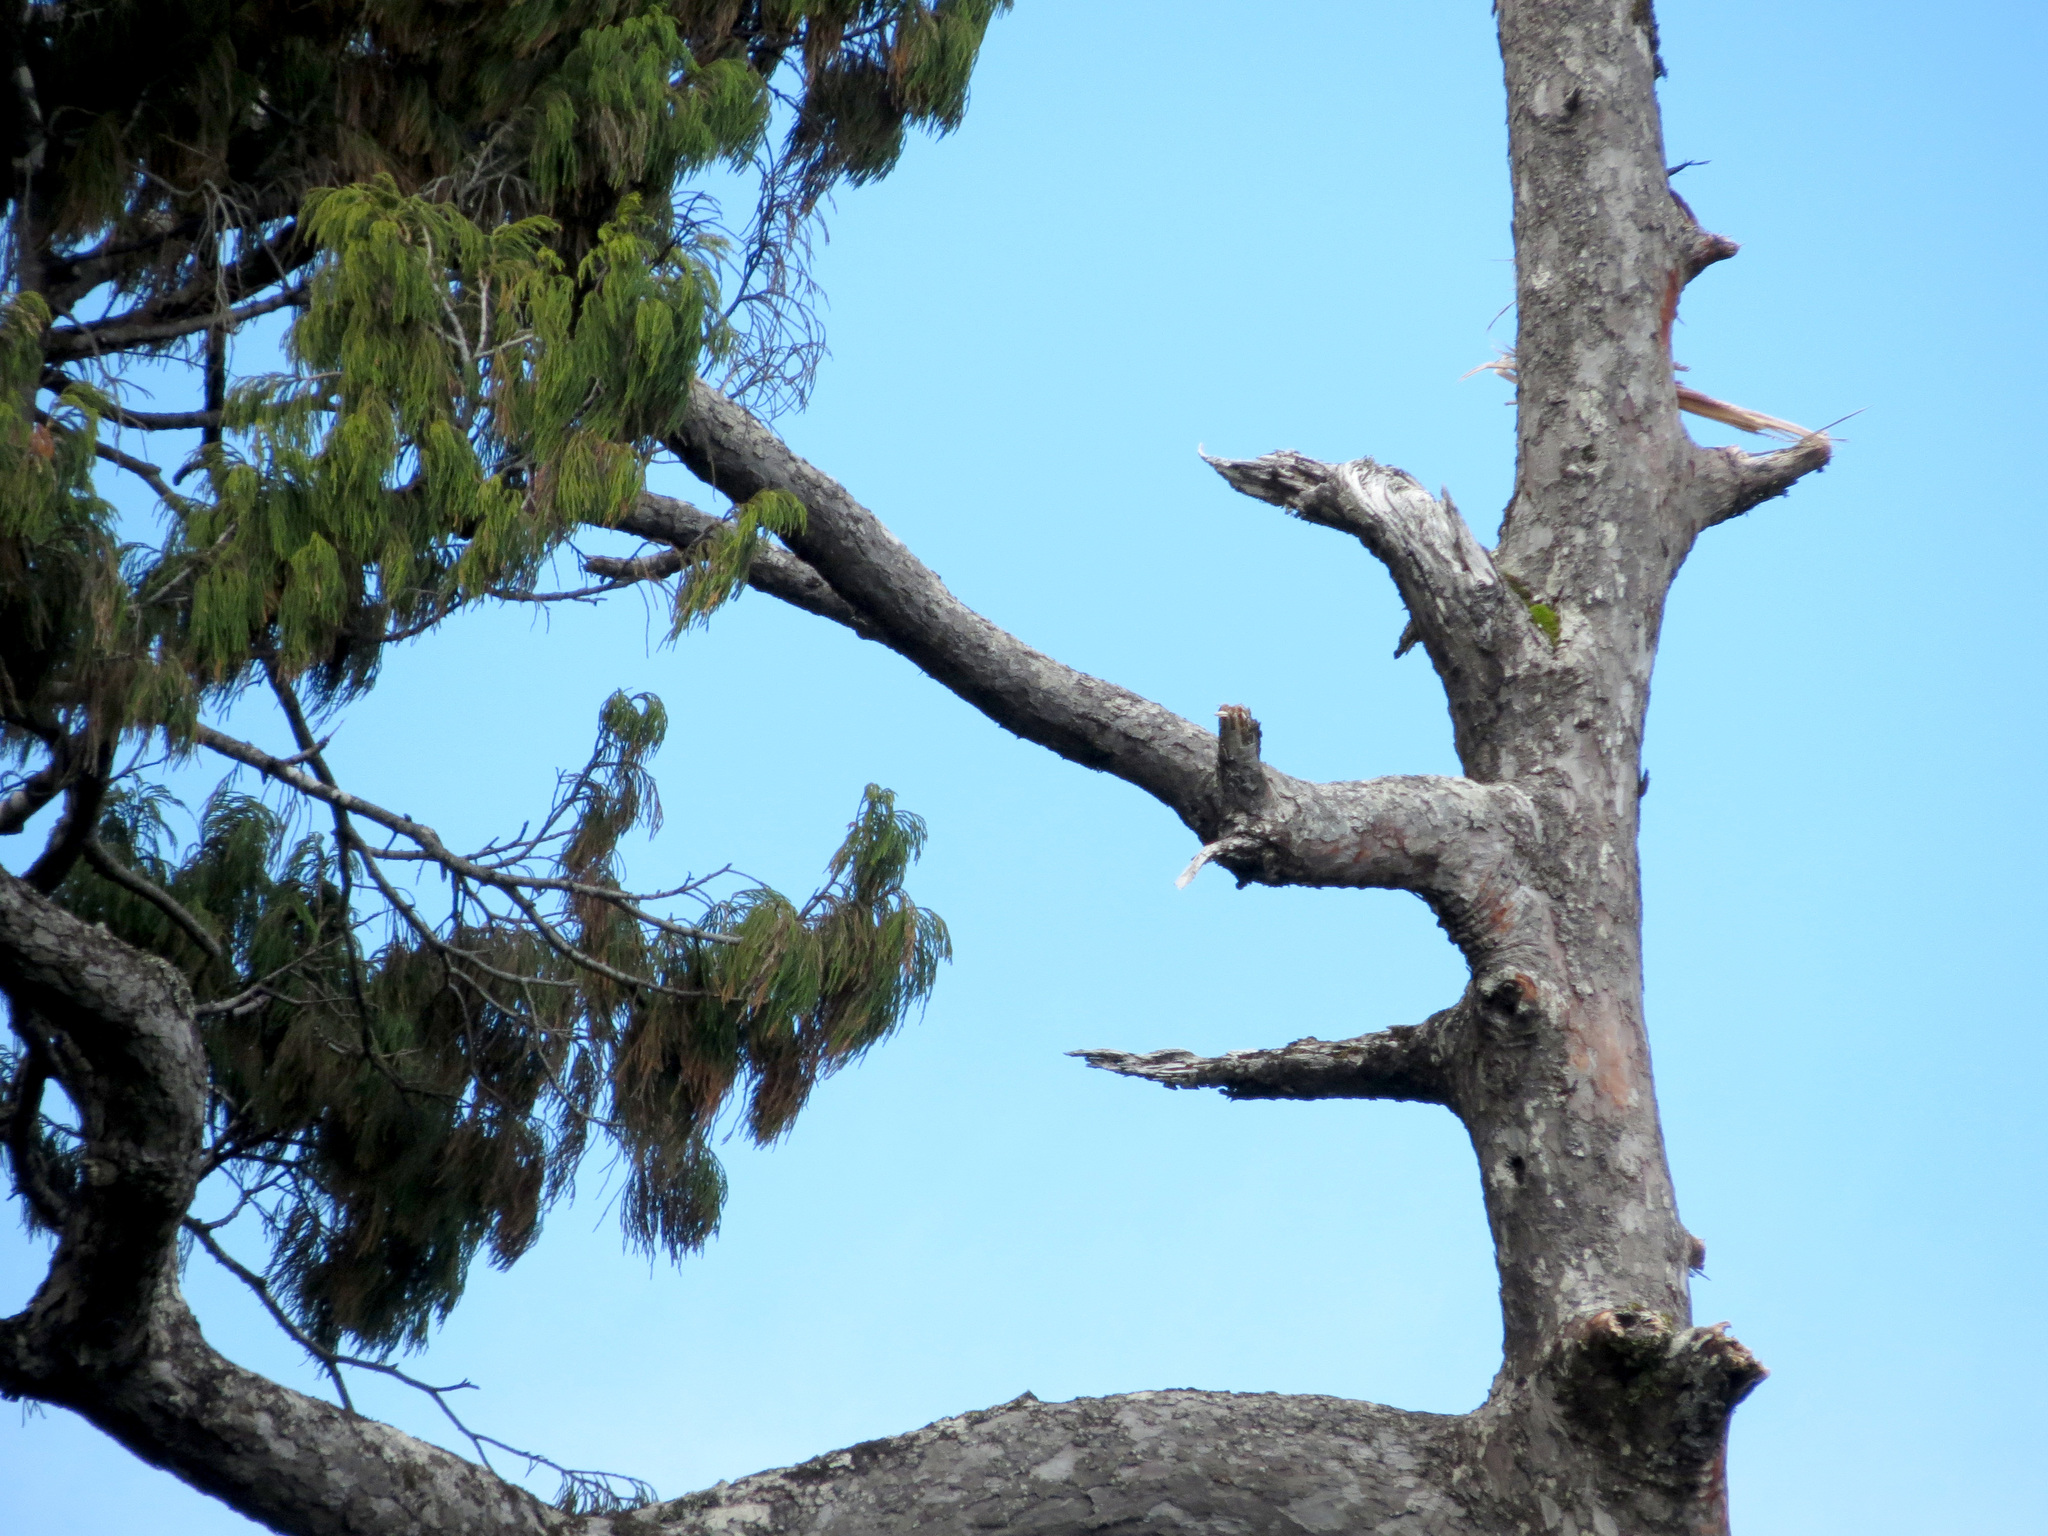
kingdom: Plantae
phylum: Tracheophyta
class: Pinopsida
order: Pinales
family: Podocarpaceae
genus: Dacrydium
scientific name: Dacrydium cupressinum
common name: Red pine
